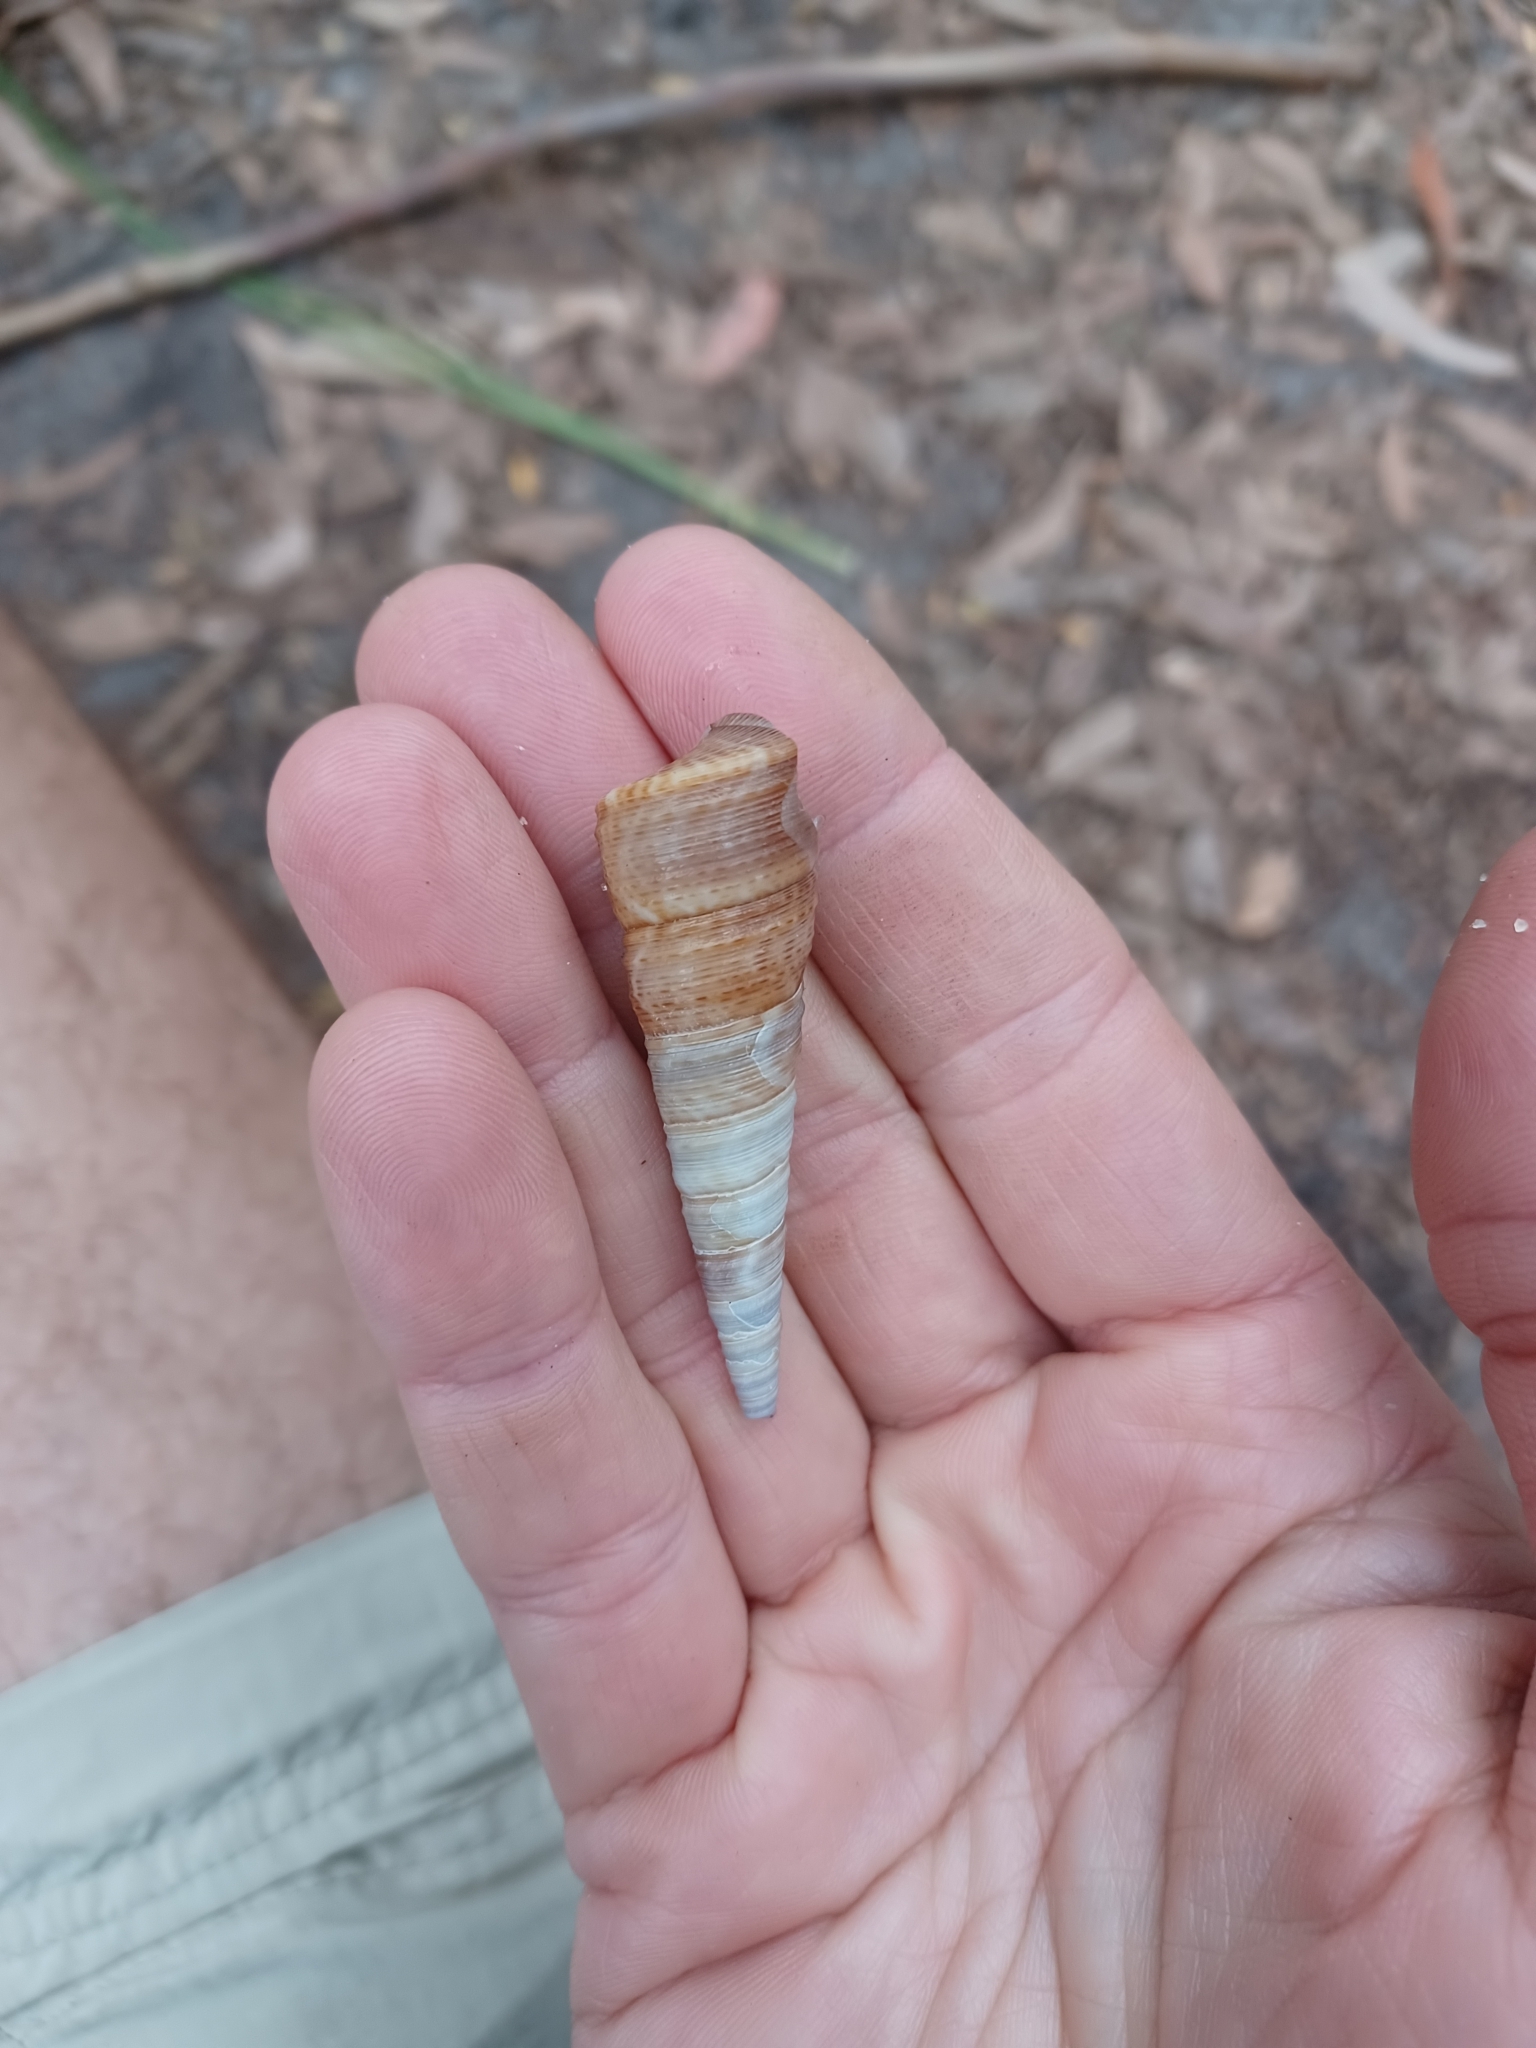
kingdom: Animalia
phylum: Mollusca
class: Gastropoda
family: Turritellidae
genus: Maoricolpus
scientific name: Maoricolpus roseus
